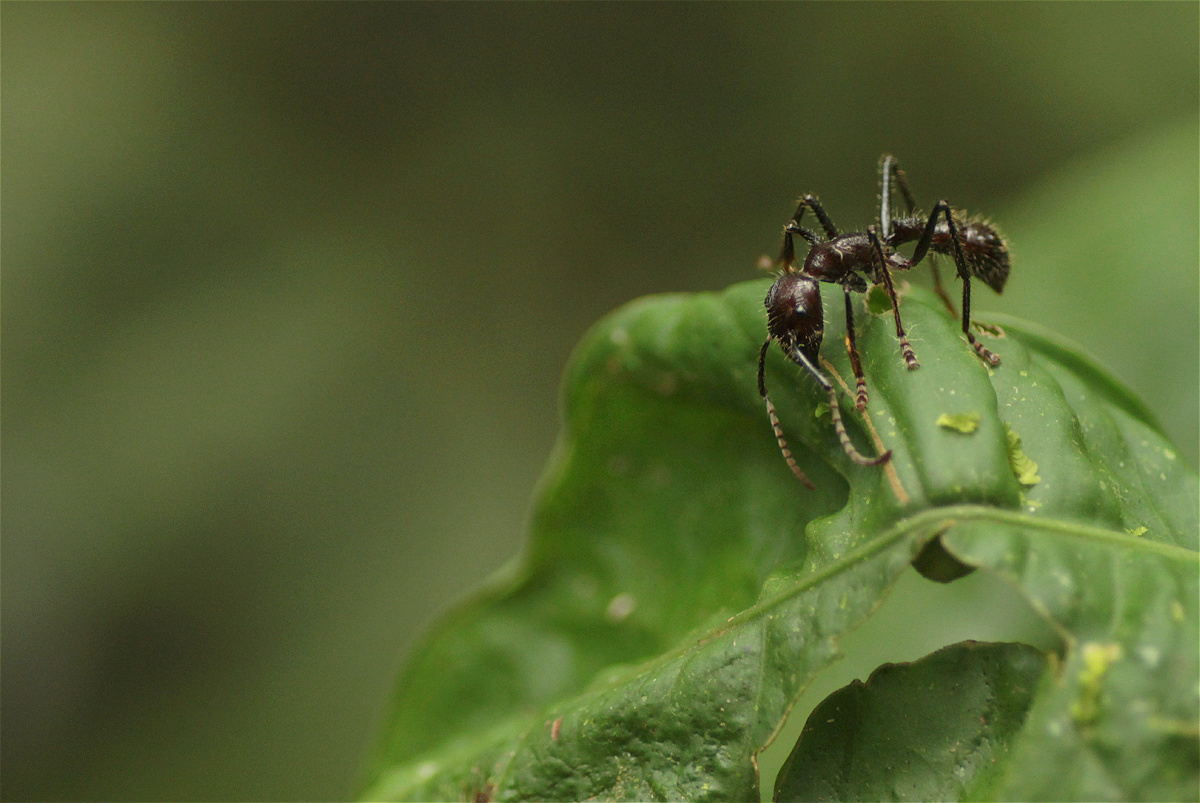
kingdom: Animalia
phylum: Arthropoda
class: Insecta
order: Hymenoptera
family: Formicidae
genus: Paraponera
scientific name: Paraponera clavata
